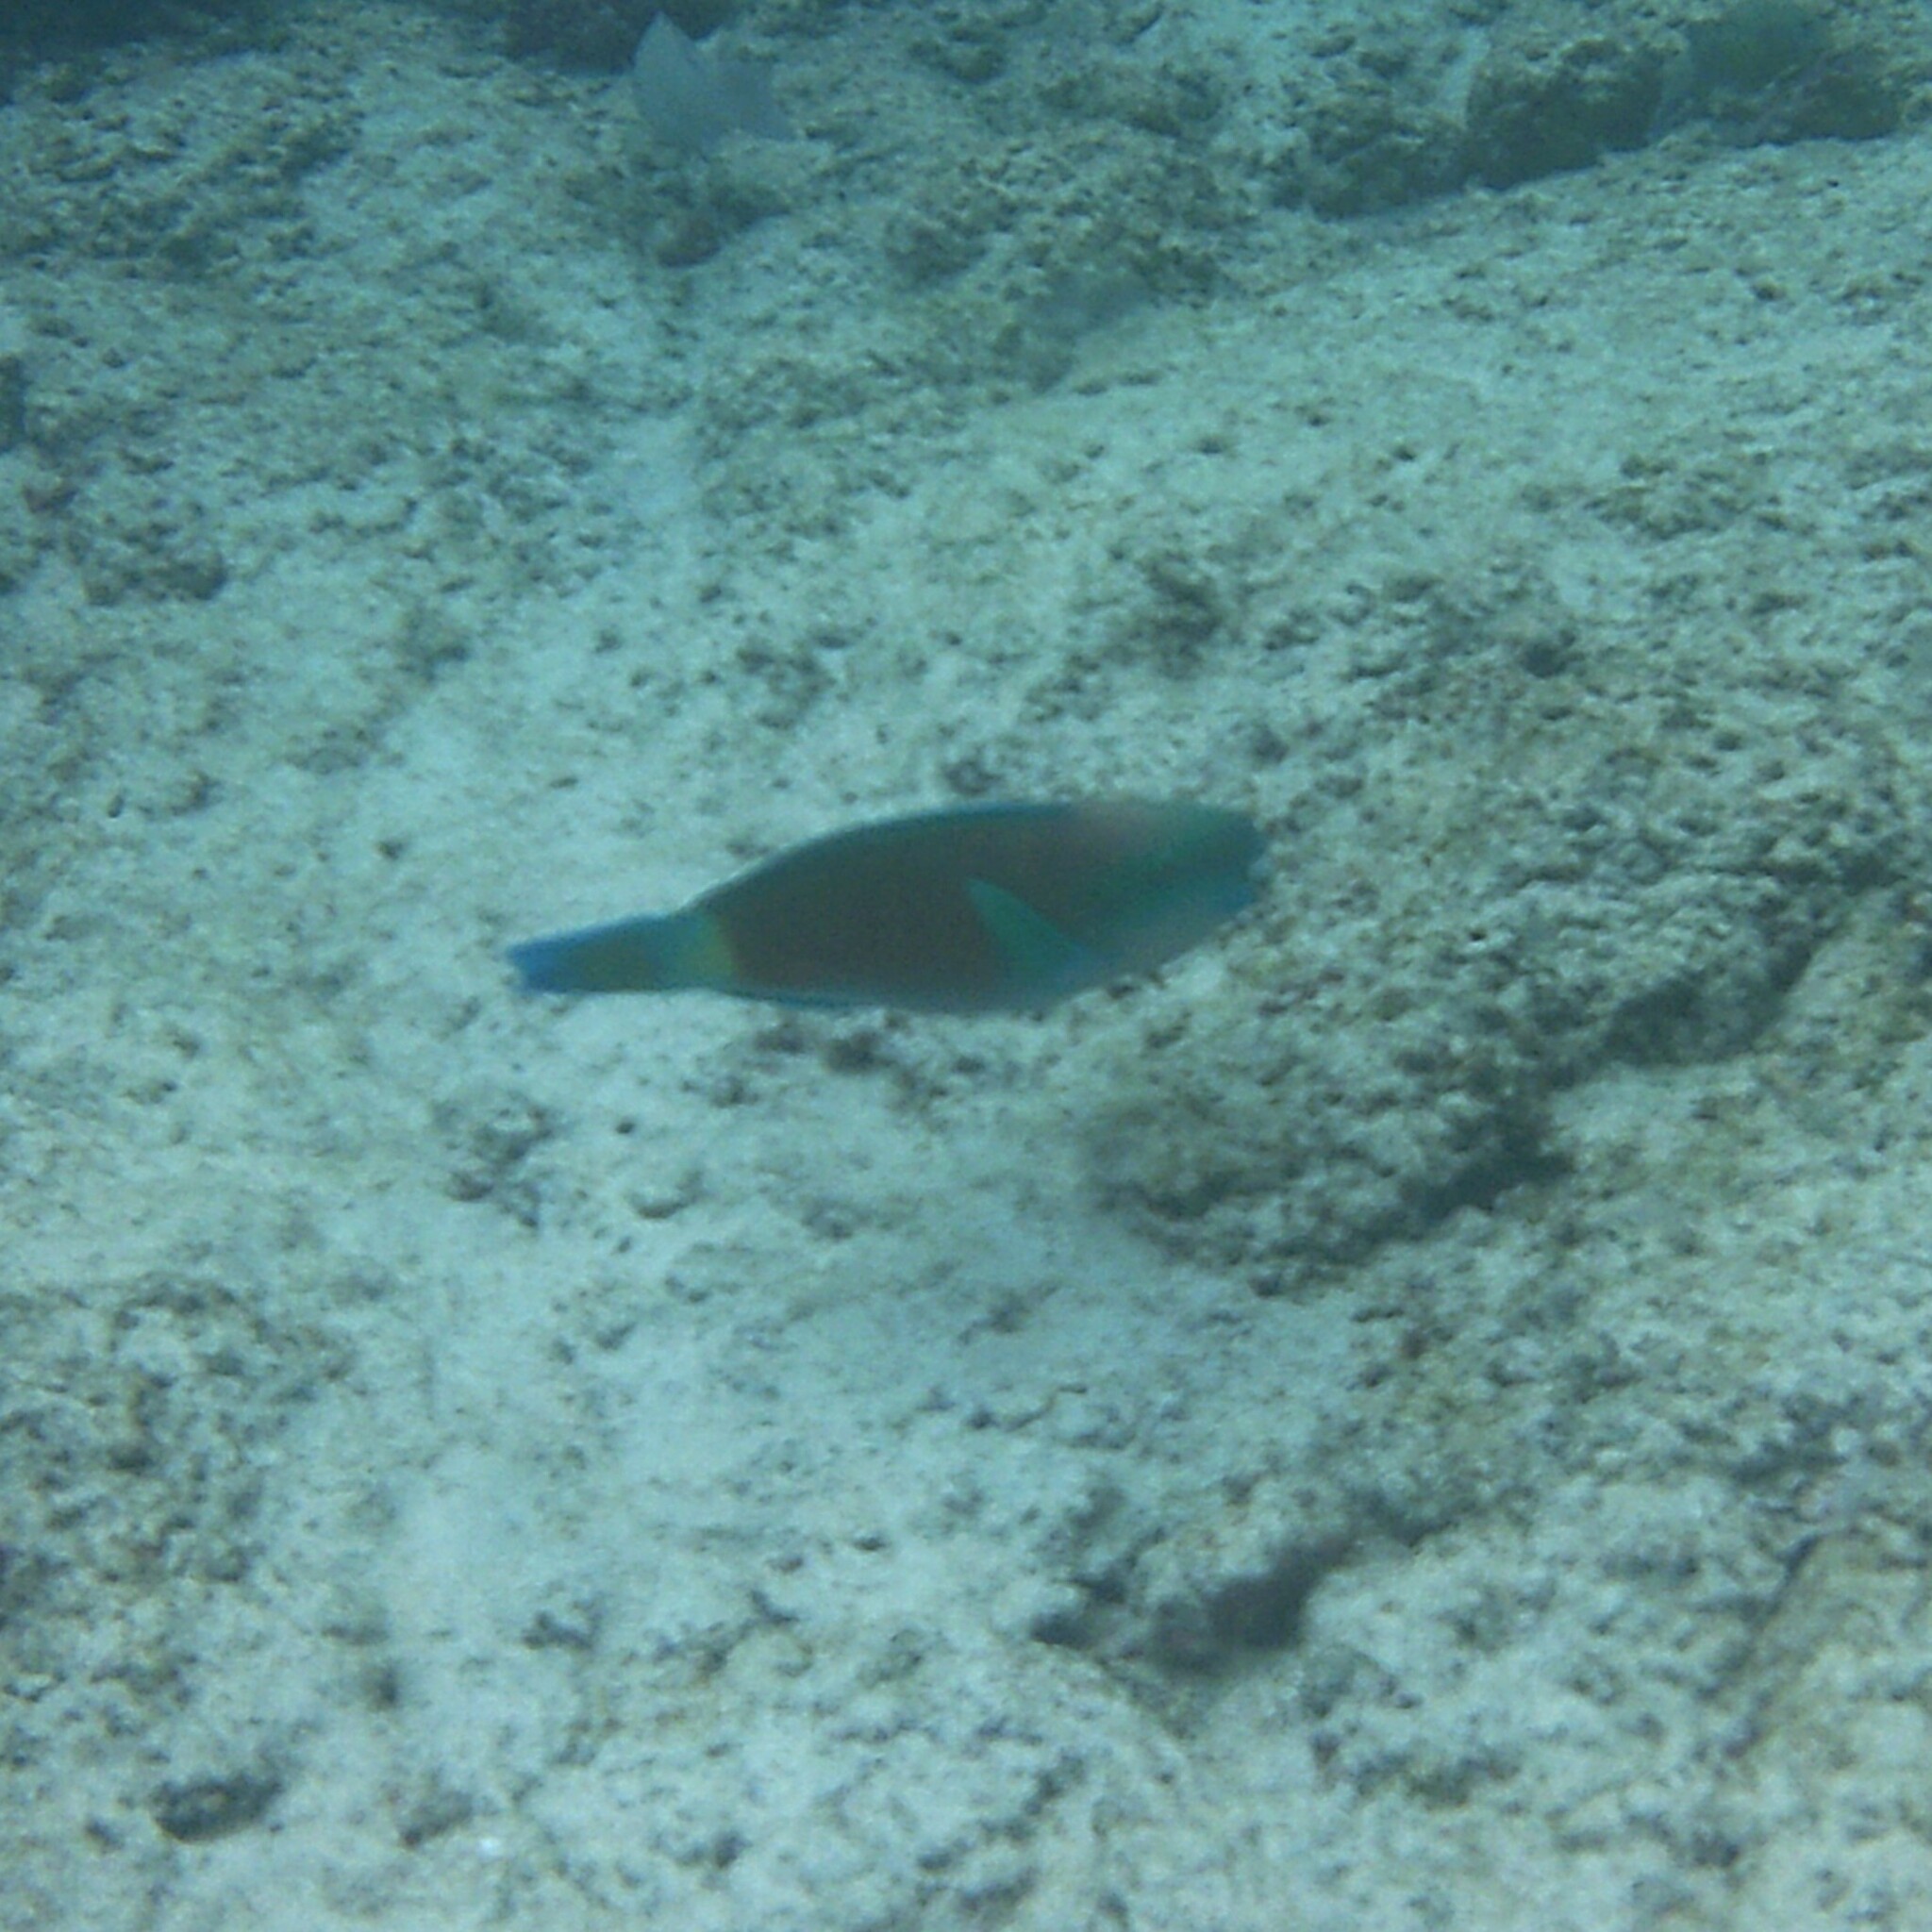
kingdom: Animalia
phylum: Chordata
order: Perciformes
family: Scaridae
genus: Chlorurus
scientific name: Chlorurus spilurus
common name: Bullethead parrotfish
